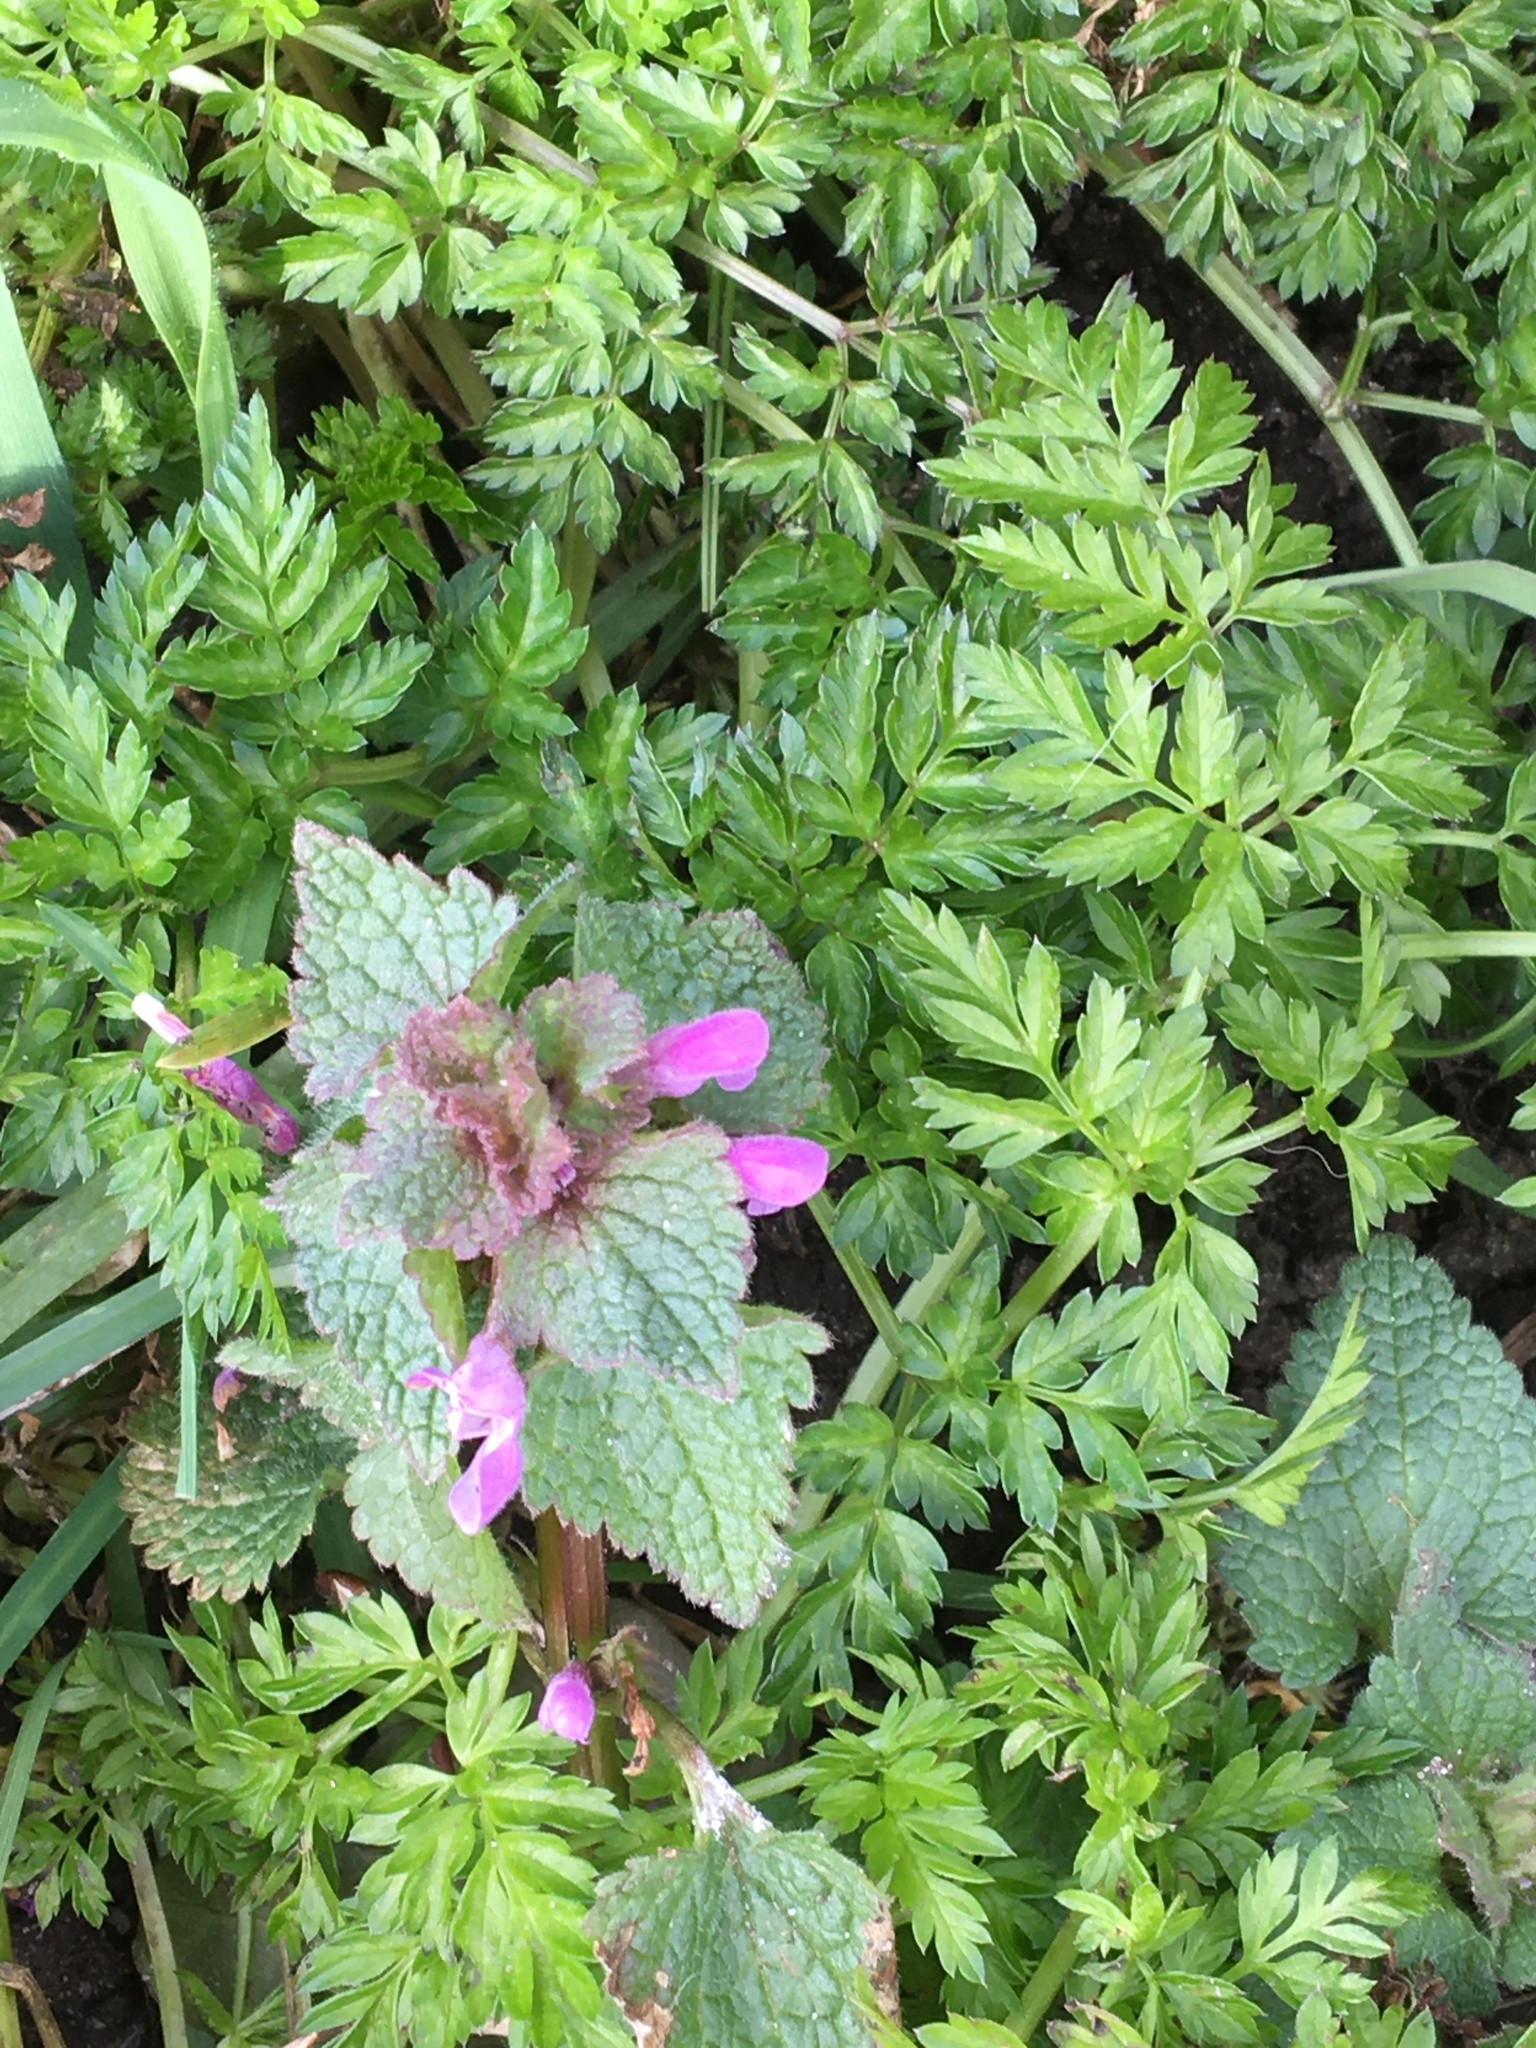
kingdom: Plantae
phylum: Tracheophyta
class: Magnoliopsida
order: Lamiales
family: Lamiaceae
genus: Lamium
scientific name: Lamium purpureum
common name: Red dead-nettle
